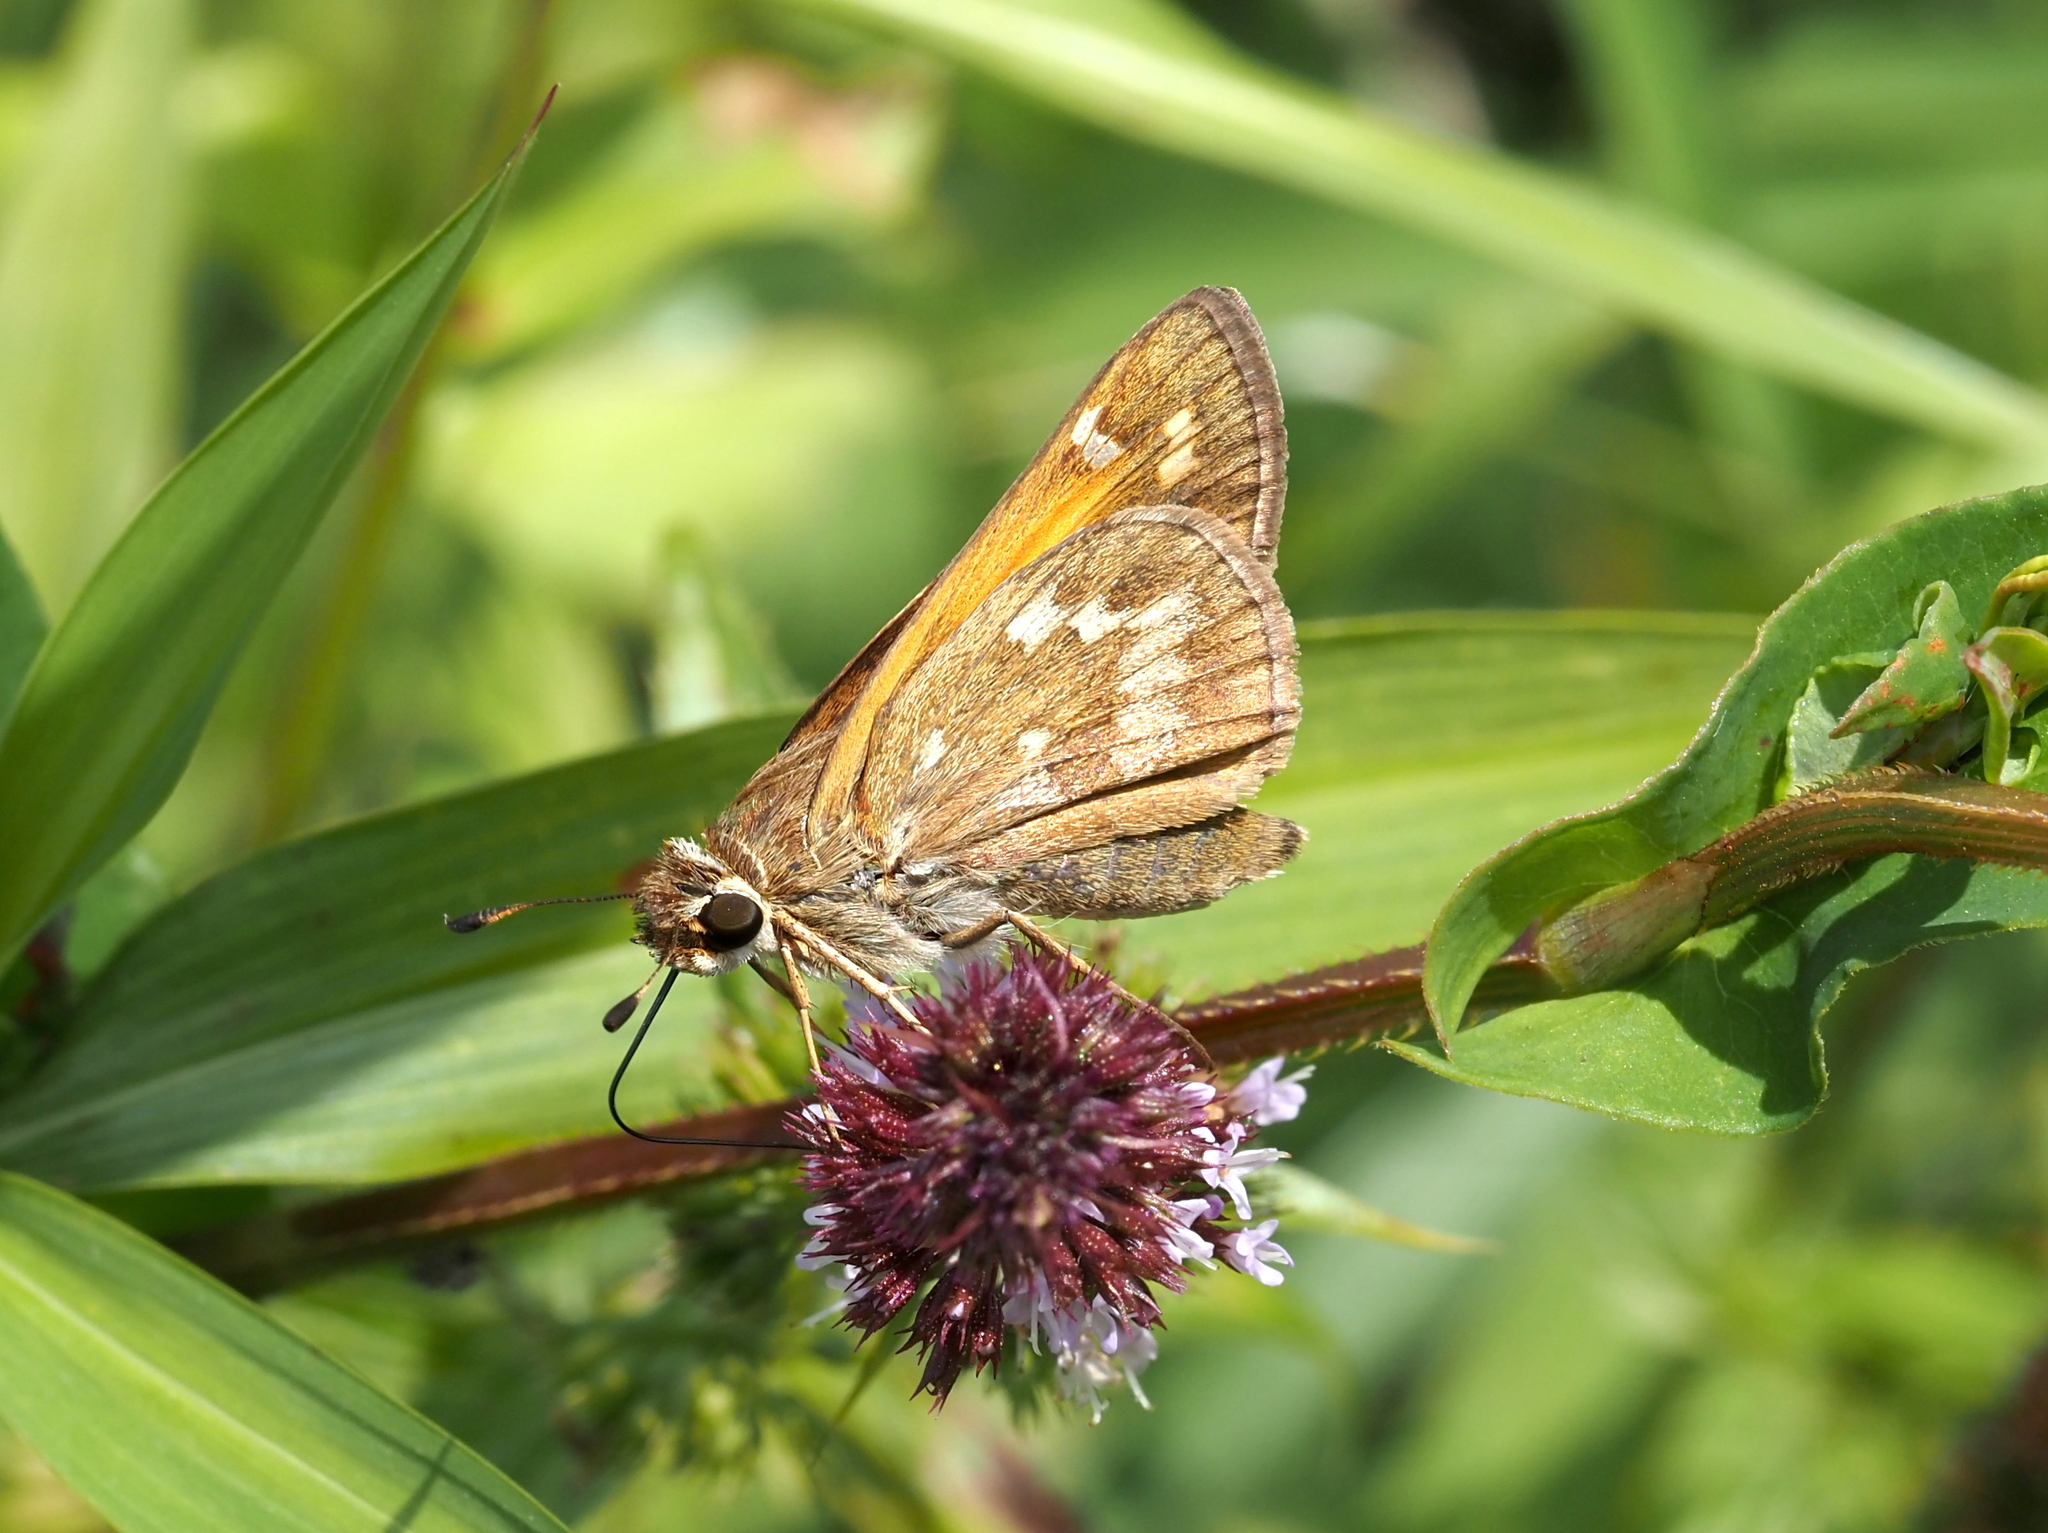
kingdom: Animalia
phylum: Arthropoda
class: Insecta
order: Lepidoptera
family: Hesperiidae
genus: Atalopedes
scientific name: Atalopedes
